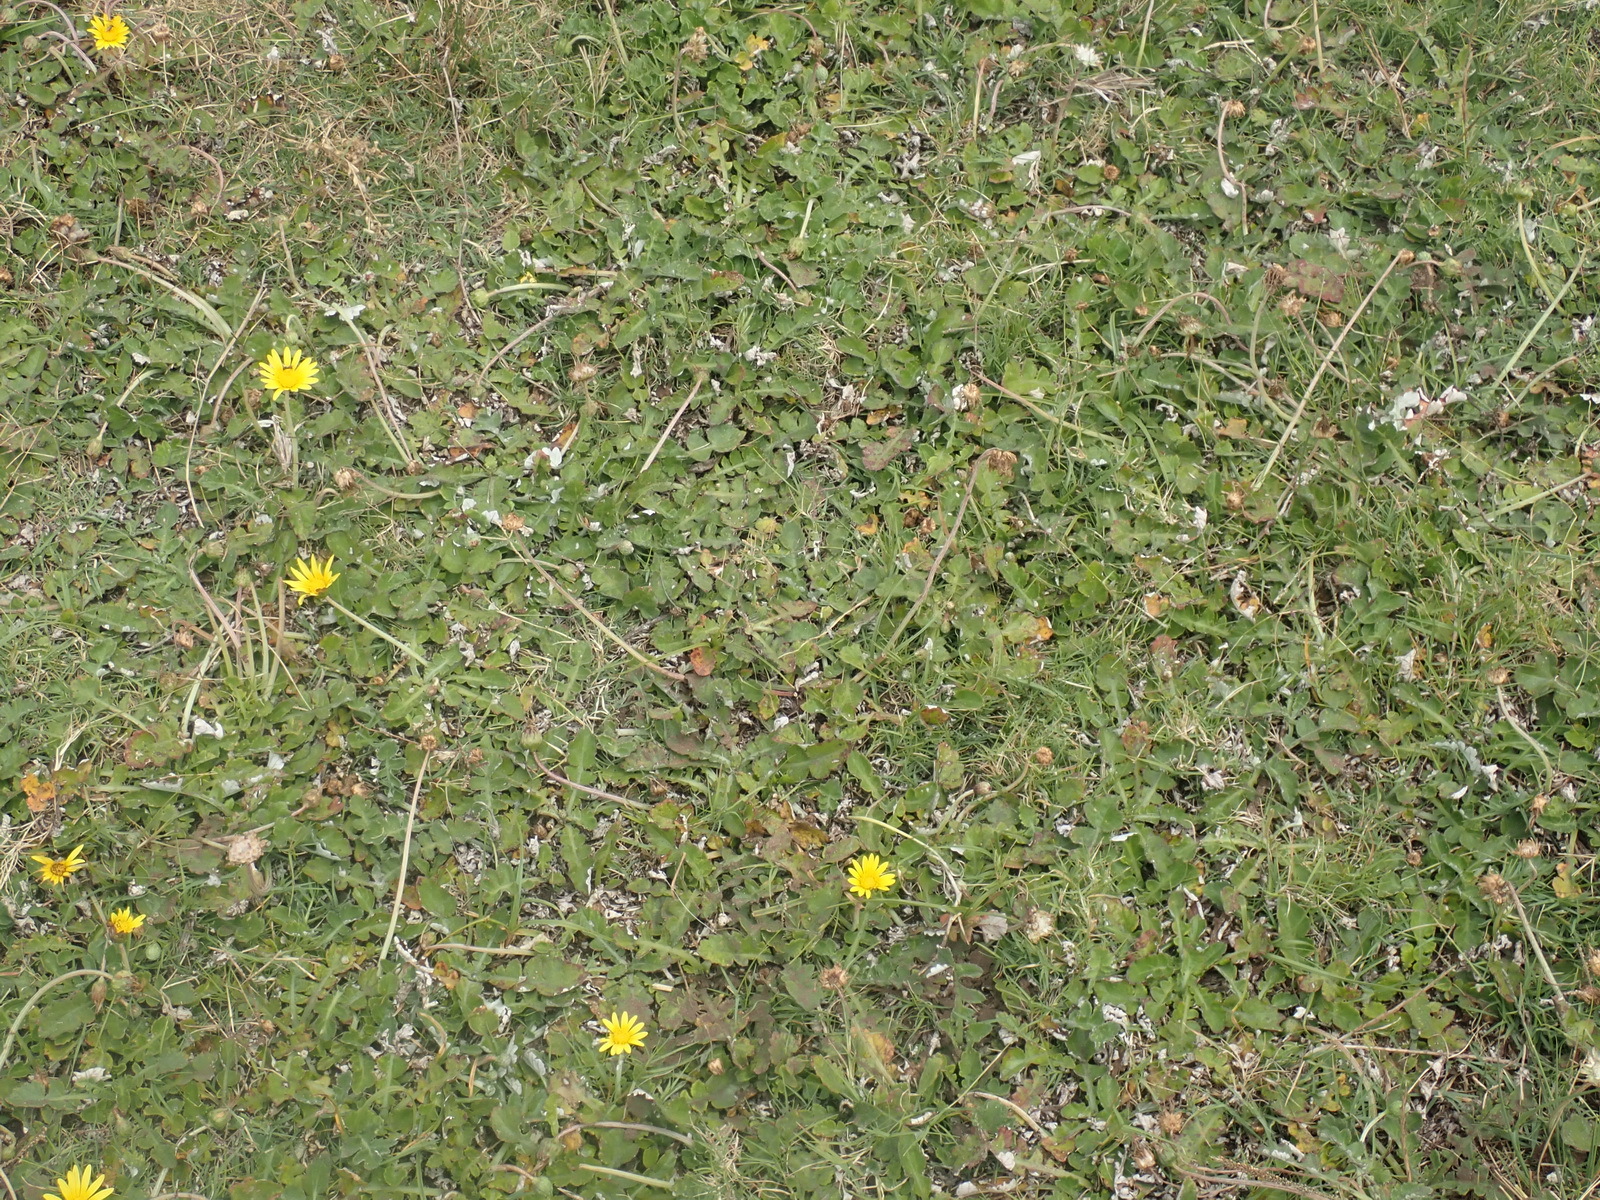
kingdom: Plantae
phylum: Tracheophyta
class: Magnoliopsida
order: Asterales
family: Asteraceae
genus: Arctotheca
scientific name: Arctotheca prostrata
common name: Capeweed
